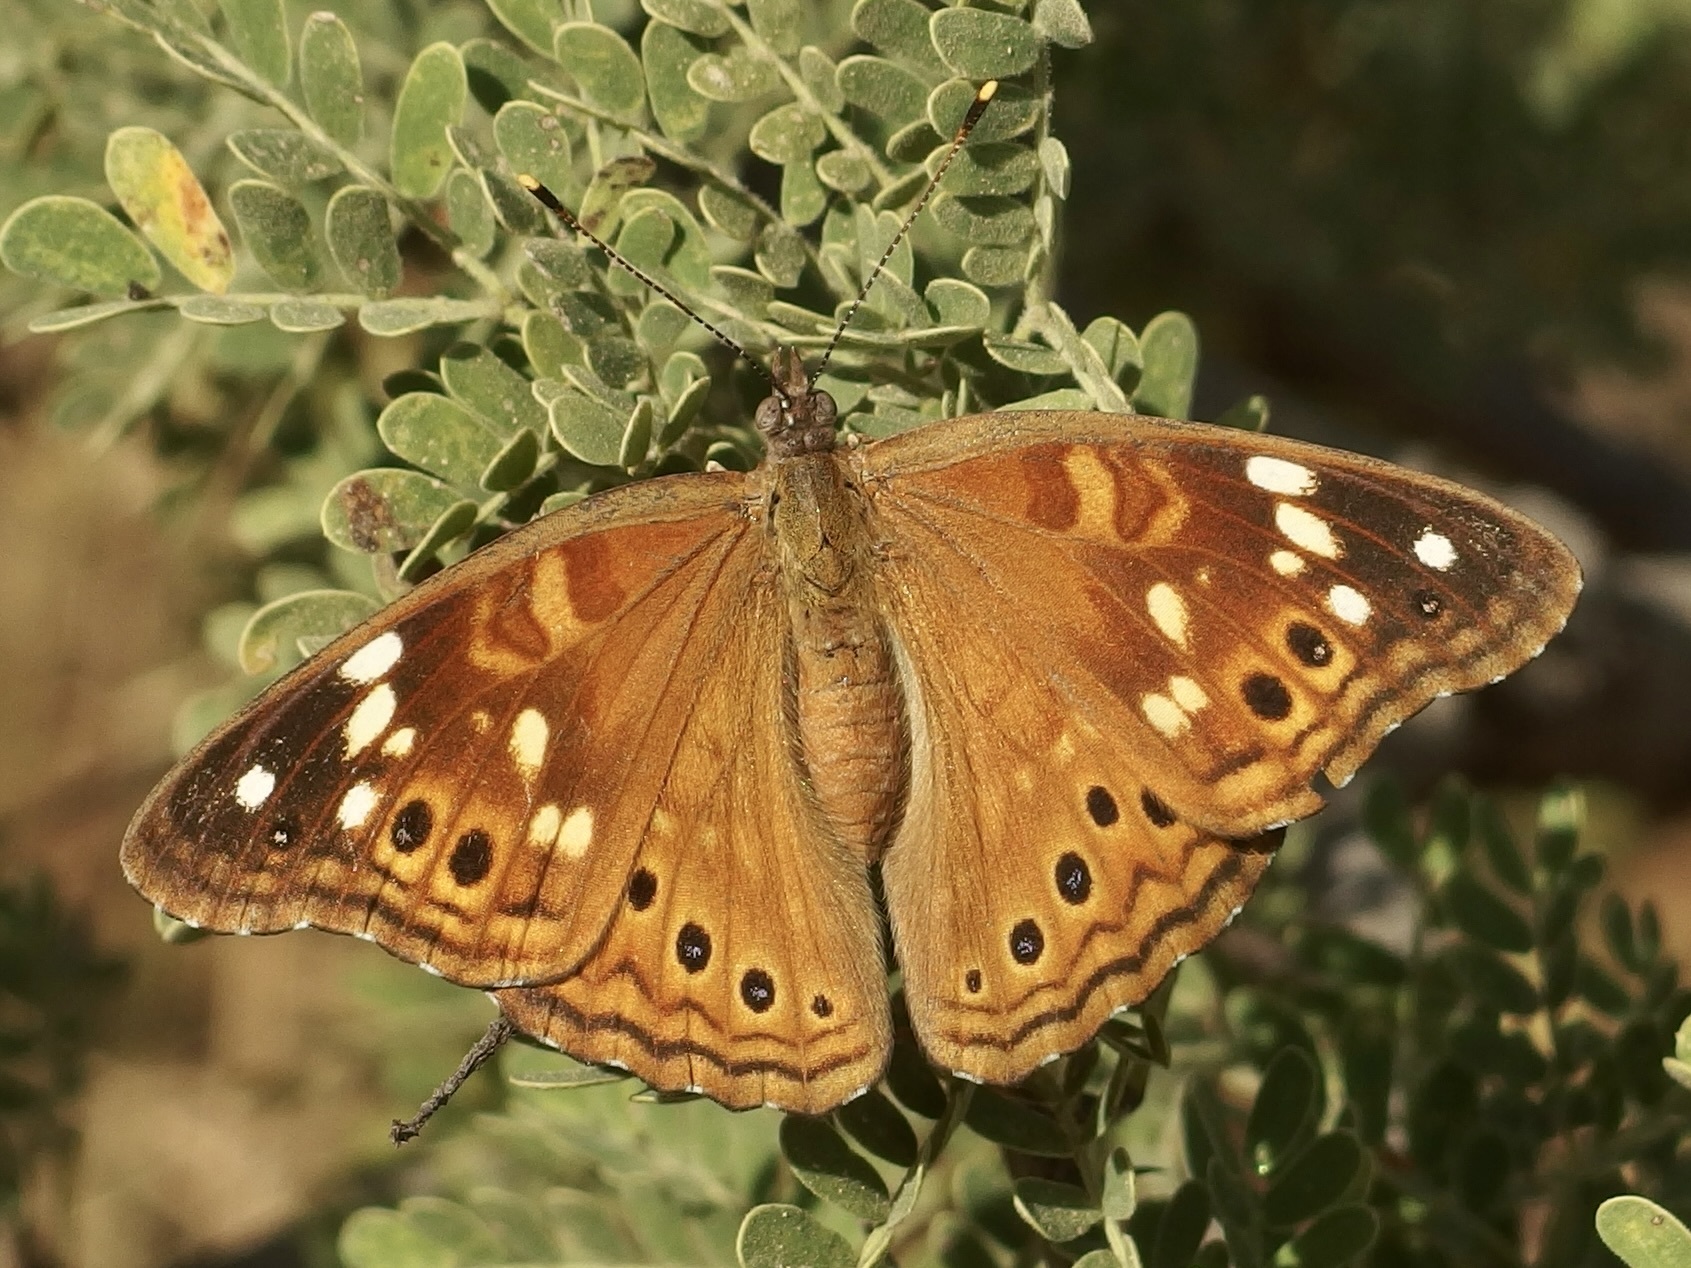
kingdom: Animalia
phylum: Arthropoda
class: Insecta
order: Lepidoptera
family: Nymphalidae
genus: Asterocampa
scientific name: Asterocampa leilia
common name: Empress leilia
